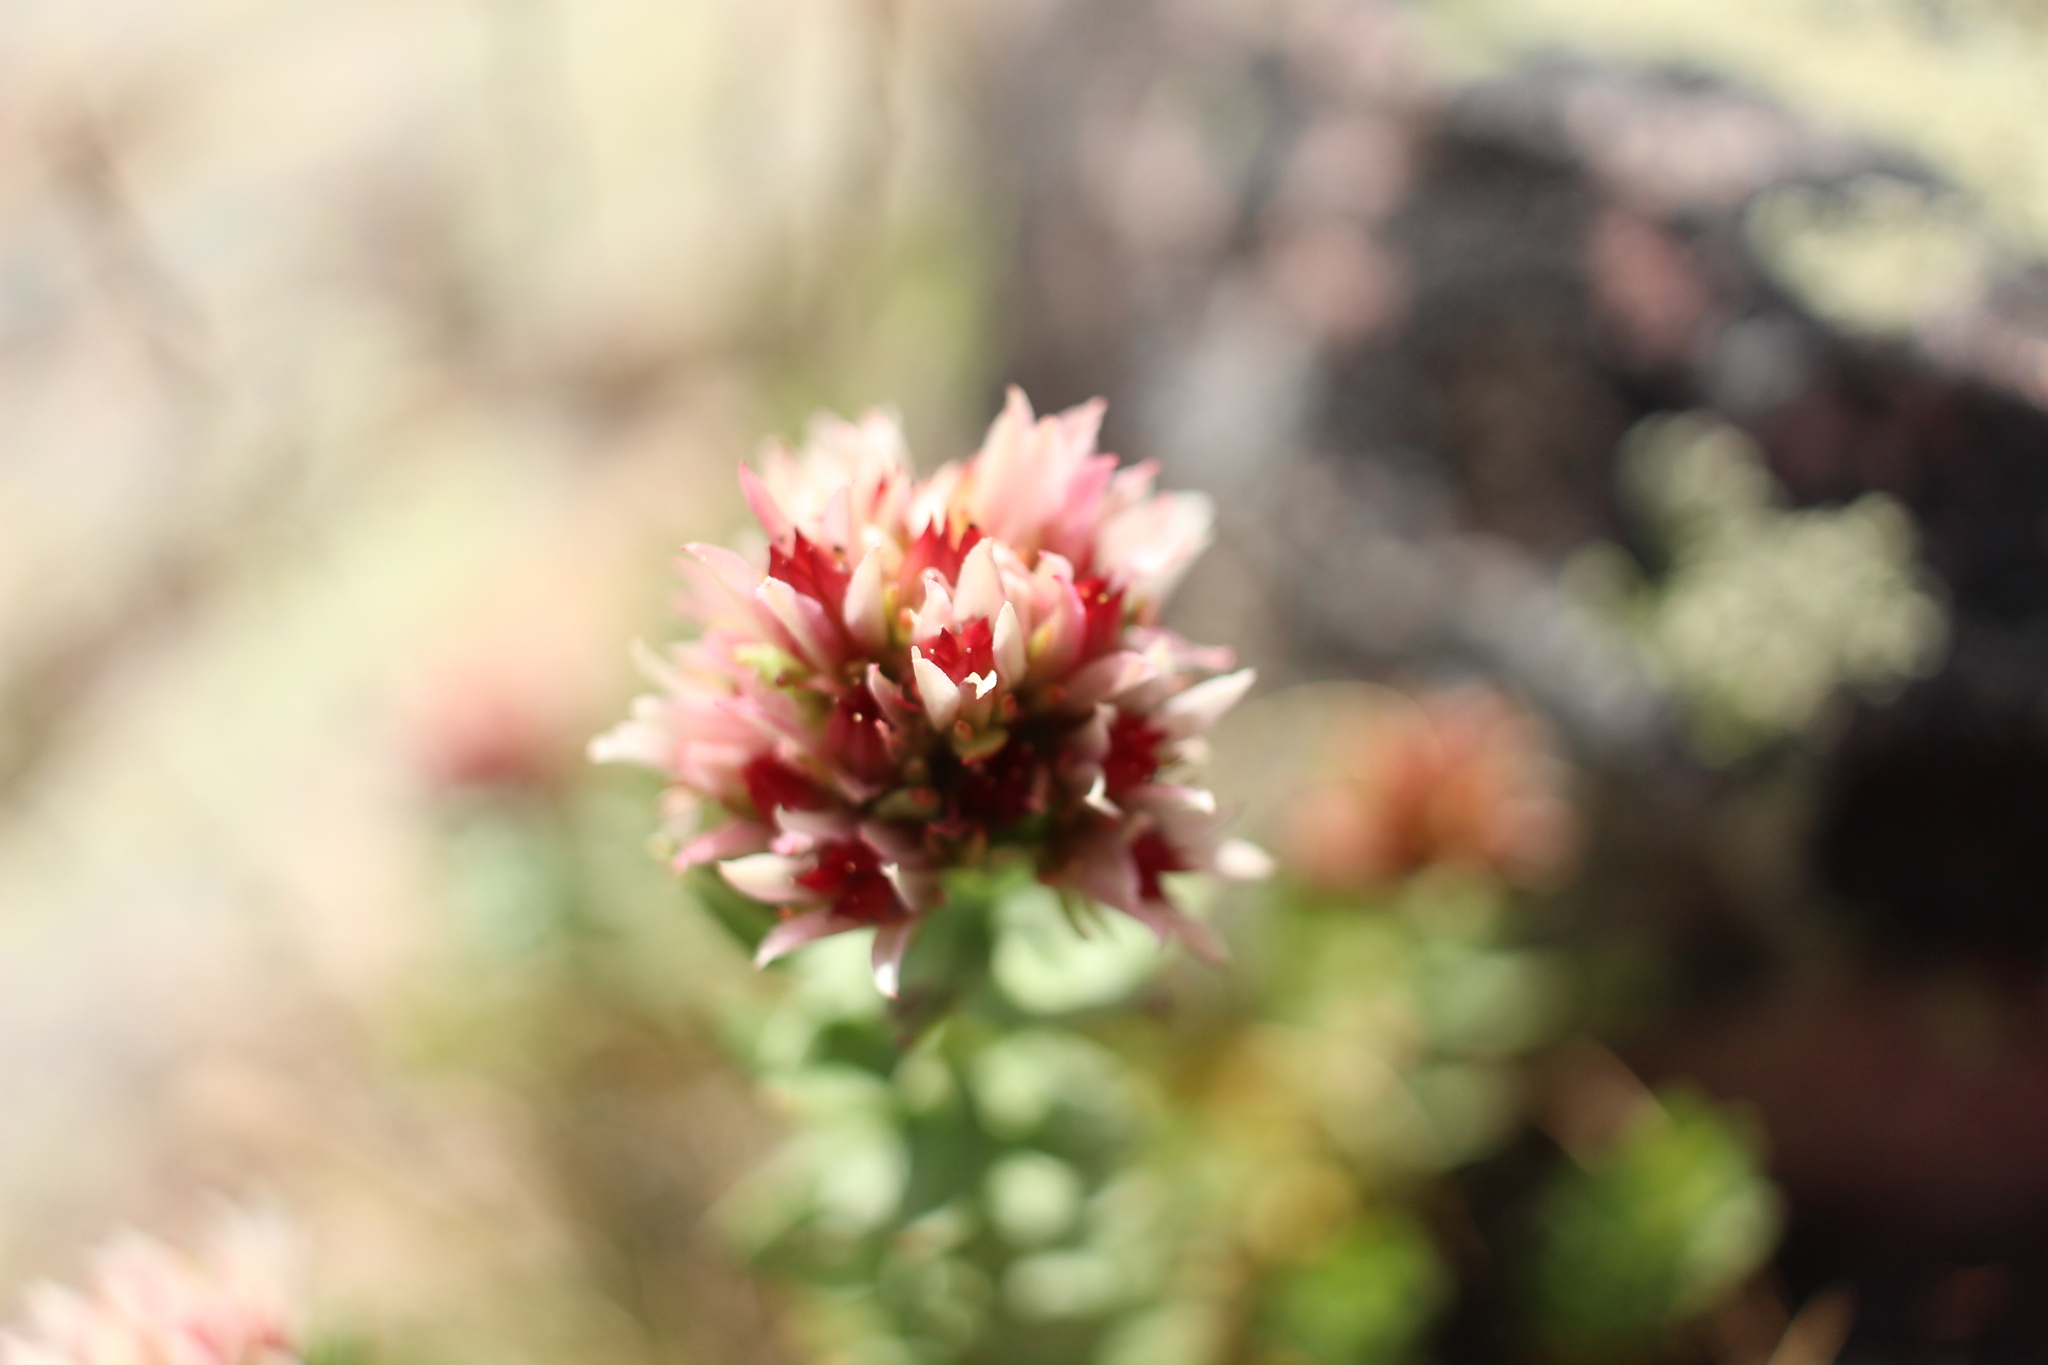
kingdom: Plantae
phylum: Tracheophyta
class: Magnoliopsida
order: Saxifragales
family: Crassulaceae
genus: Rhodiola
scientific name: Rhodiola rhodantha
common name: Red orpine
